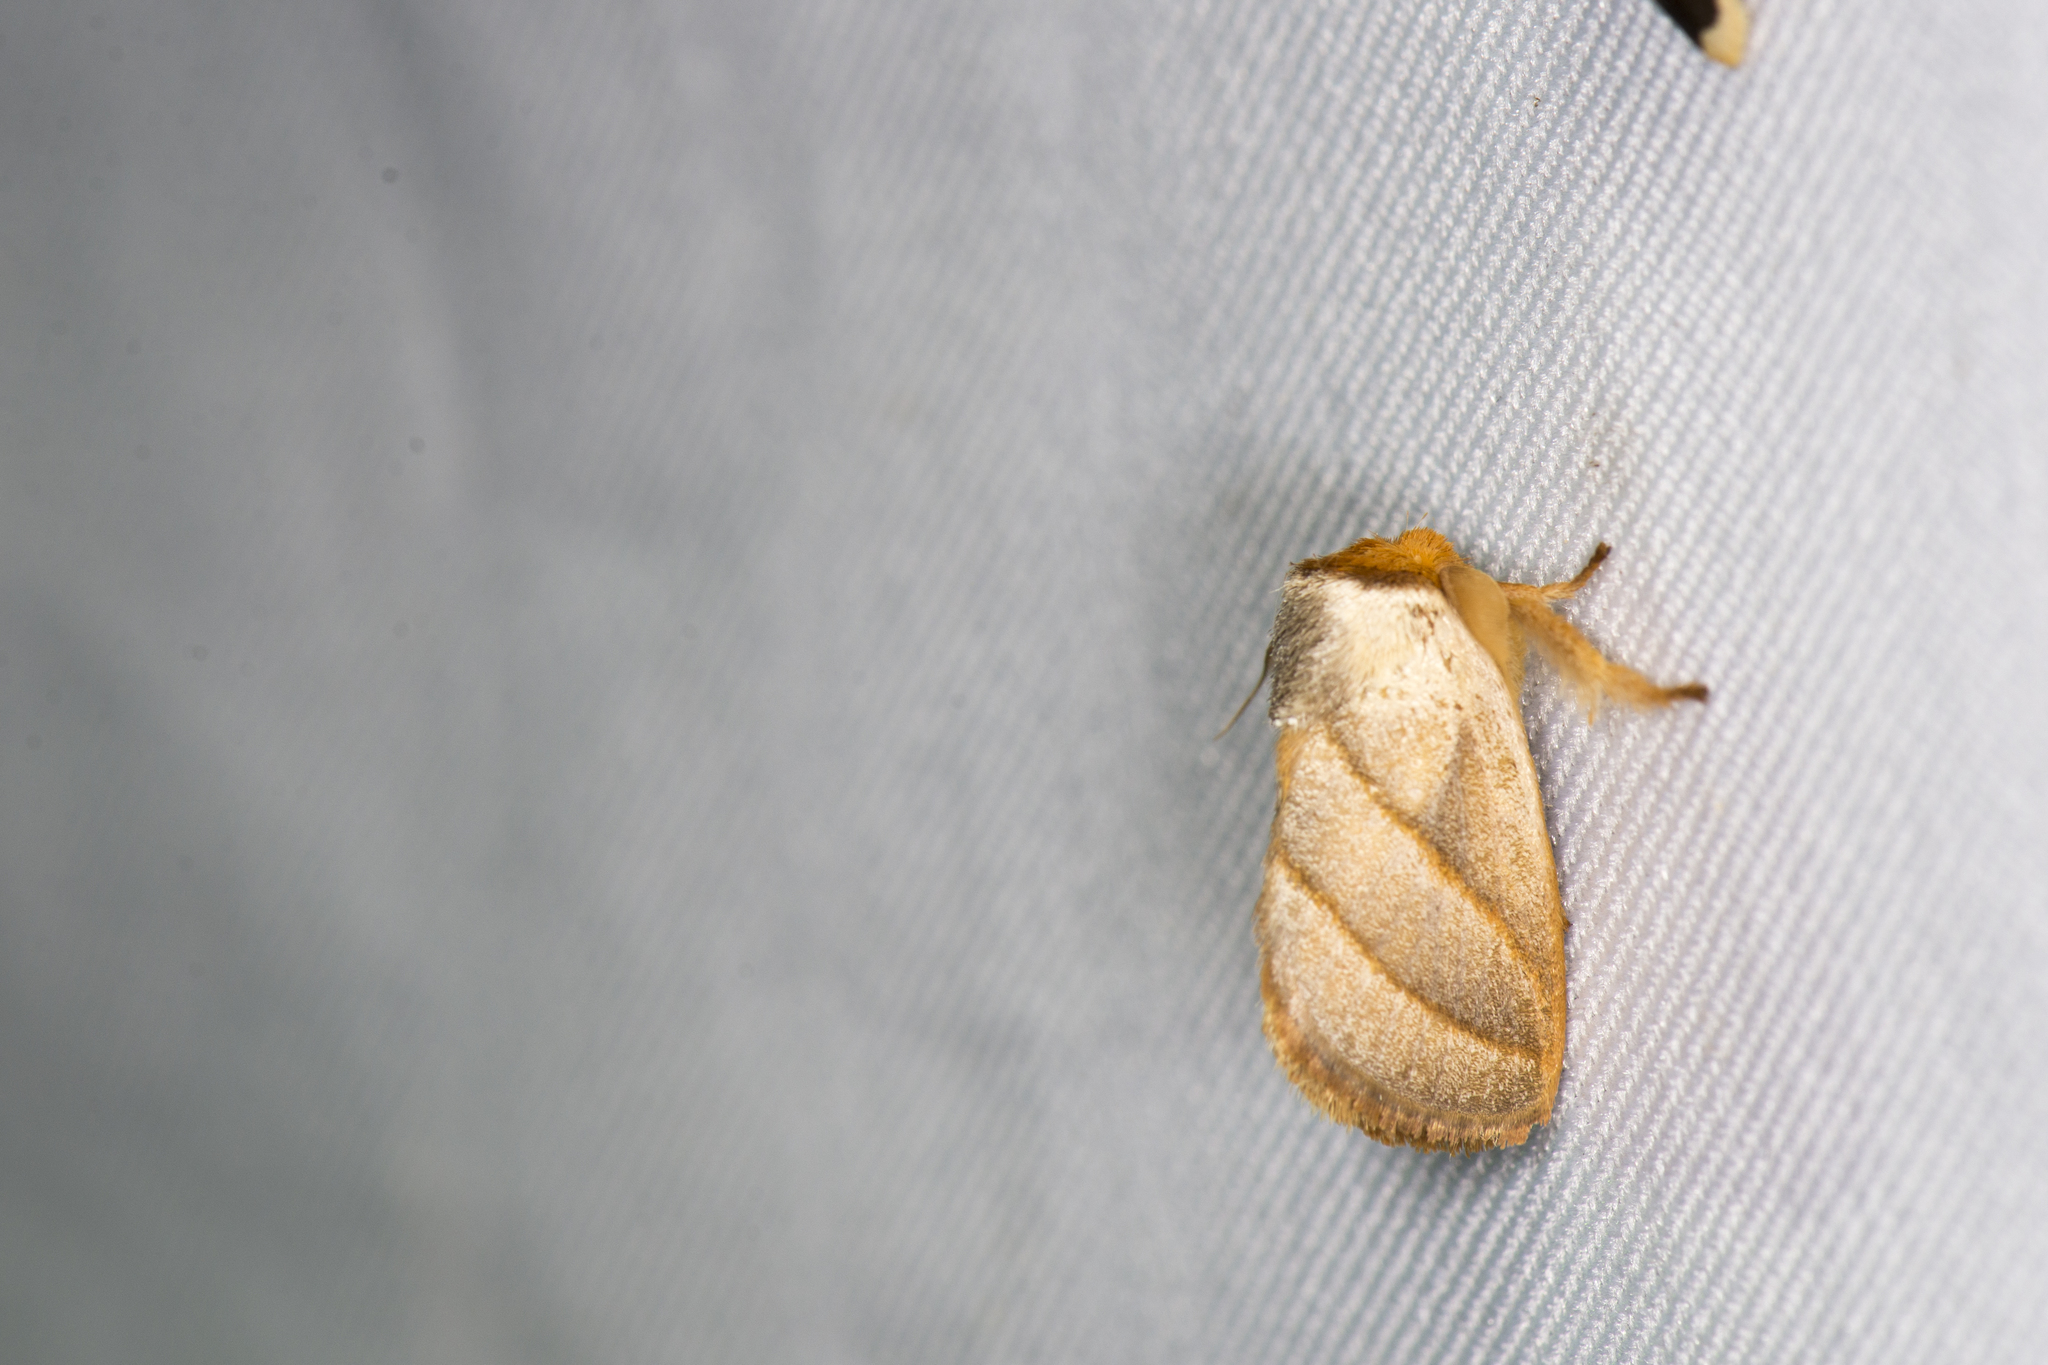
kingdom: Animalia
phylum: Arthropoda
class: Insecta
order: Lepidoptera
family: Limacodidae
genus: Cania
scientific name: Cania heppneri
